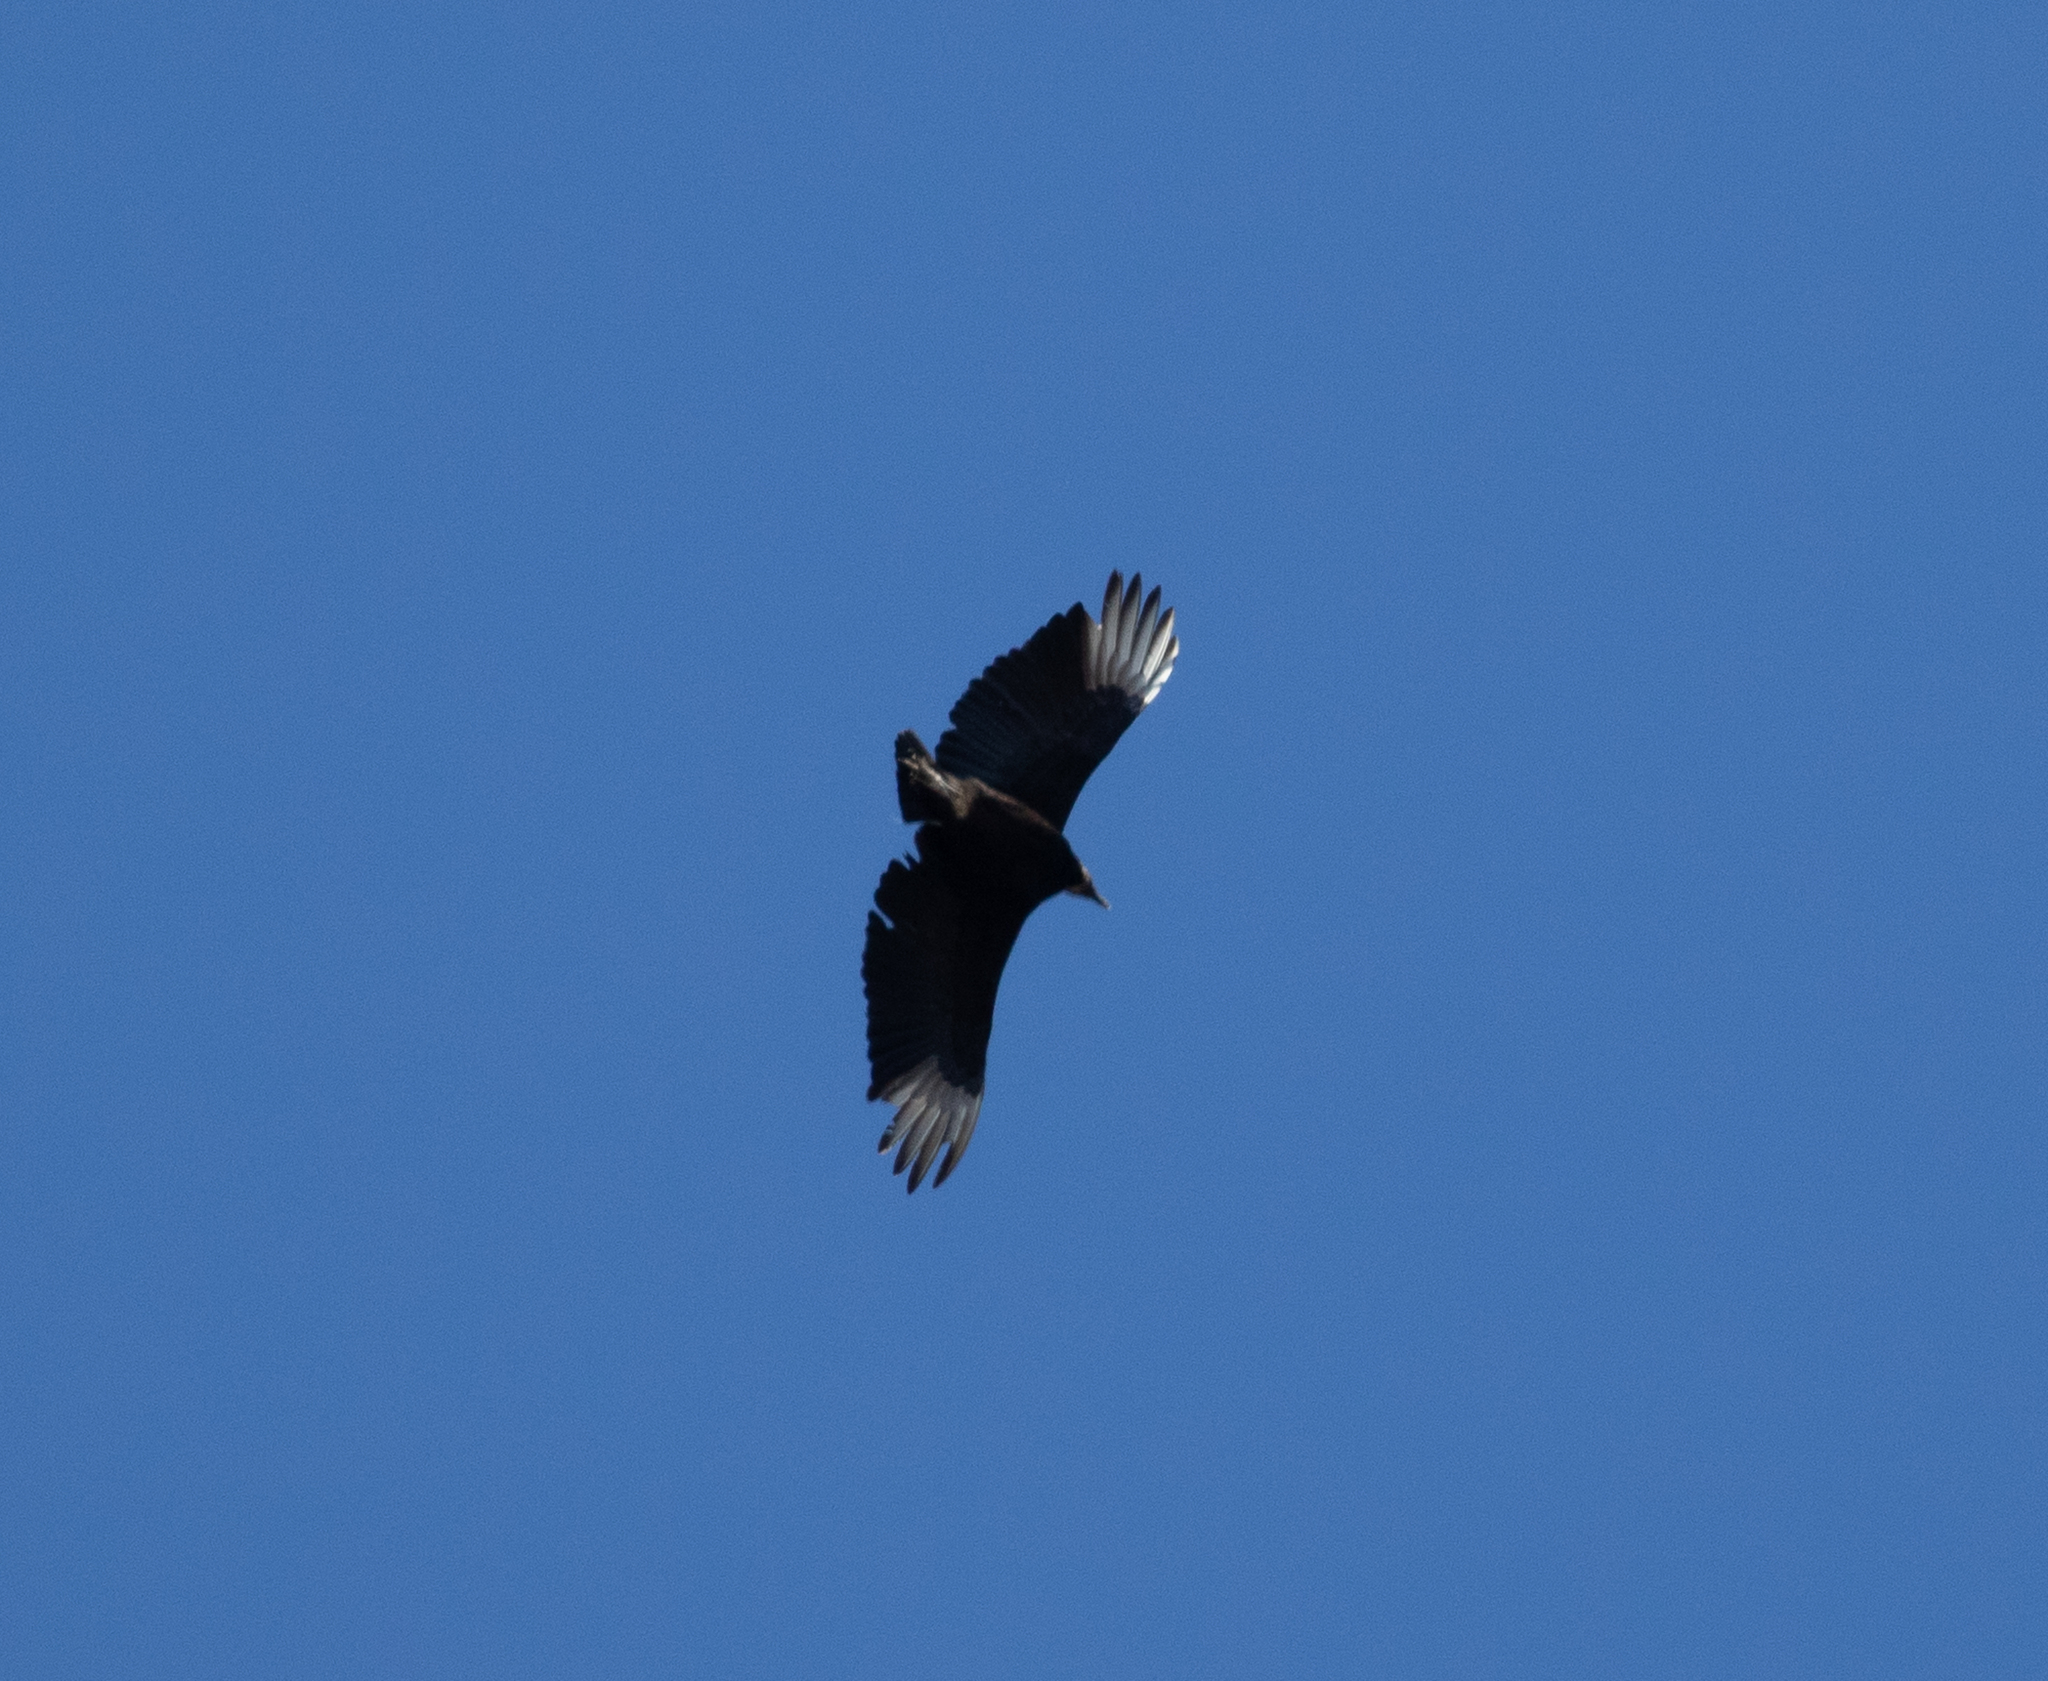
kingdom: Animalia
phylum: Chordata
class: Aves
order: Accipitriformes
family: Cathartidae
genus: Coragyps
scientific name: Coragyps atratus
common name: Black vulture
